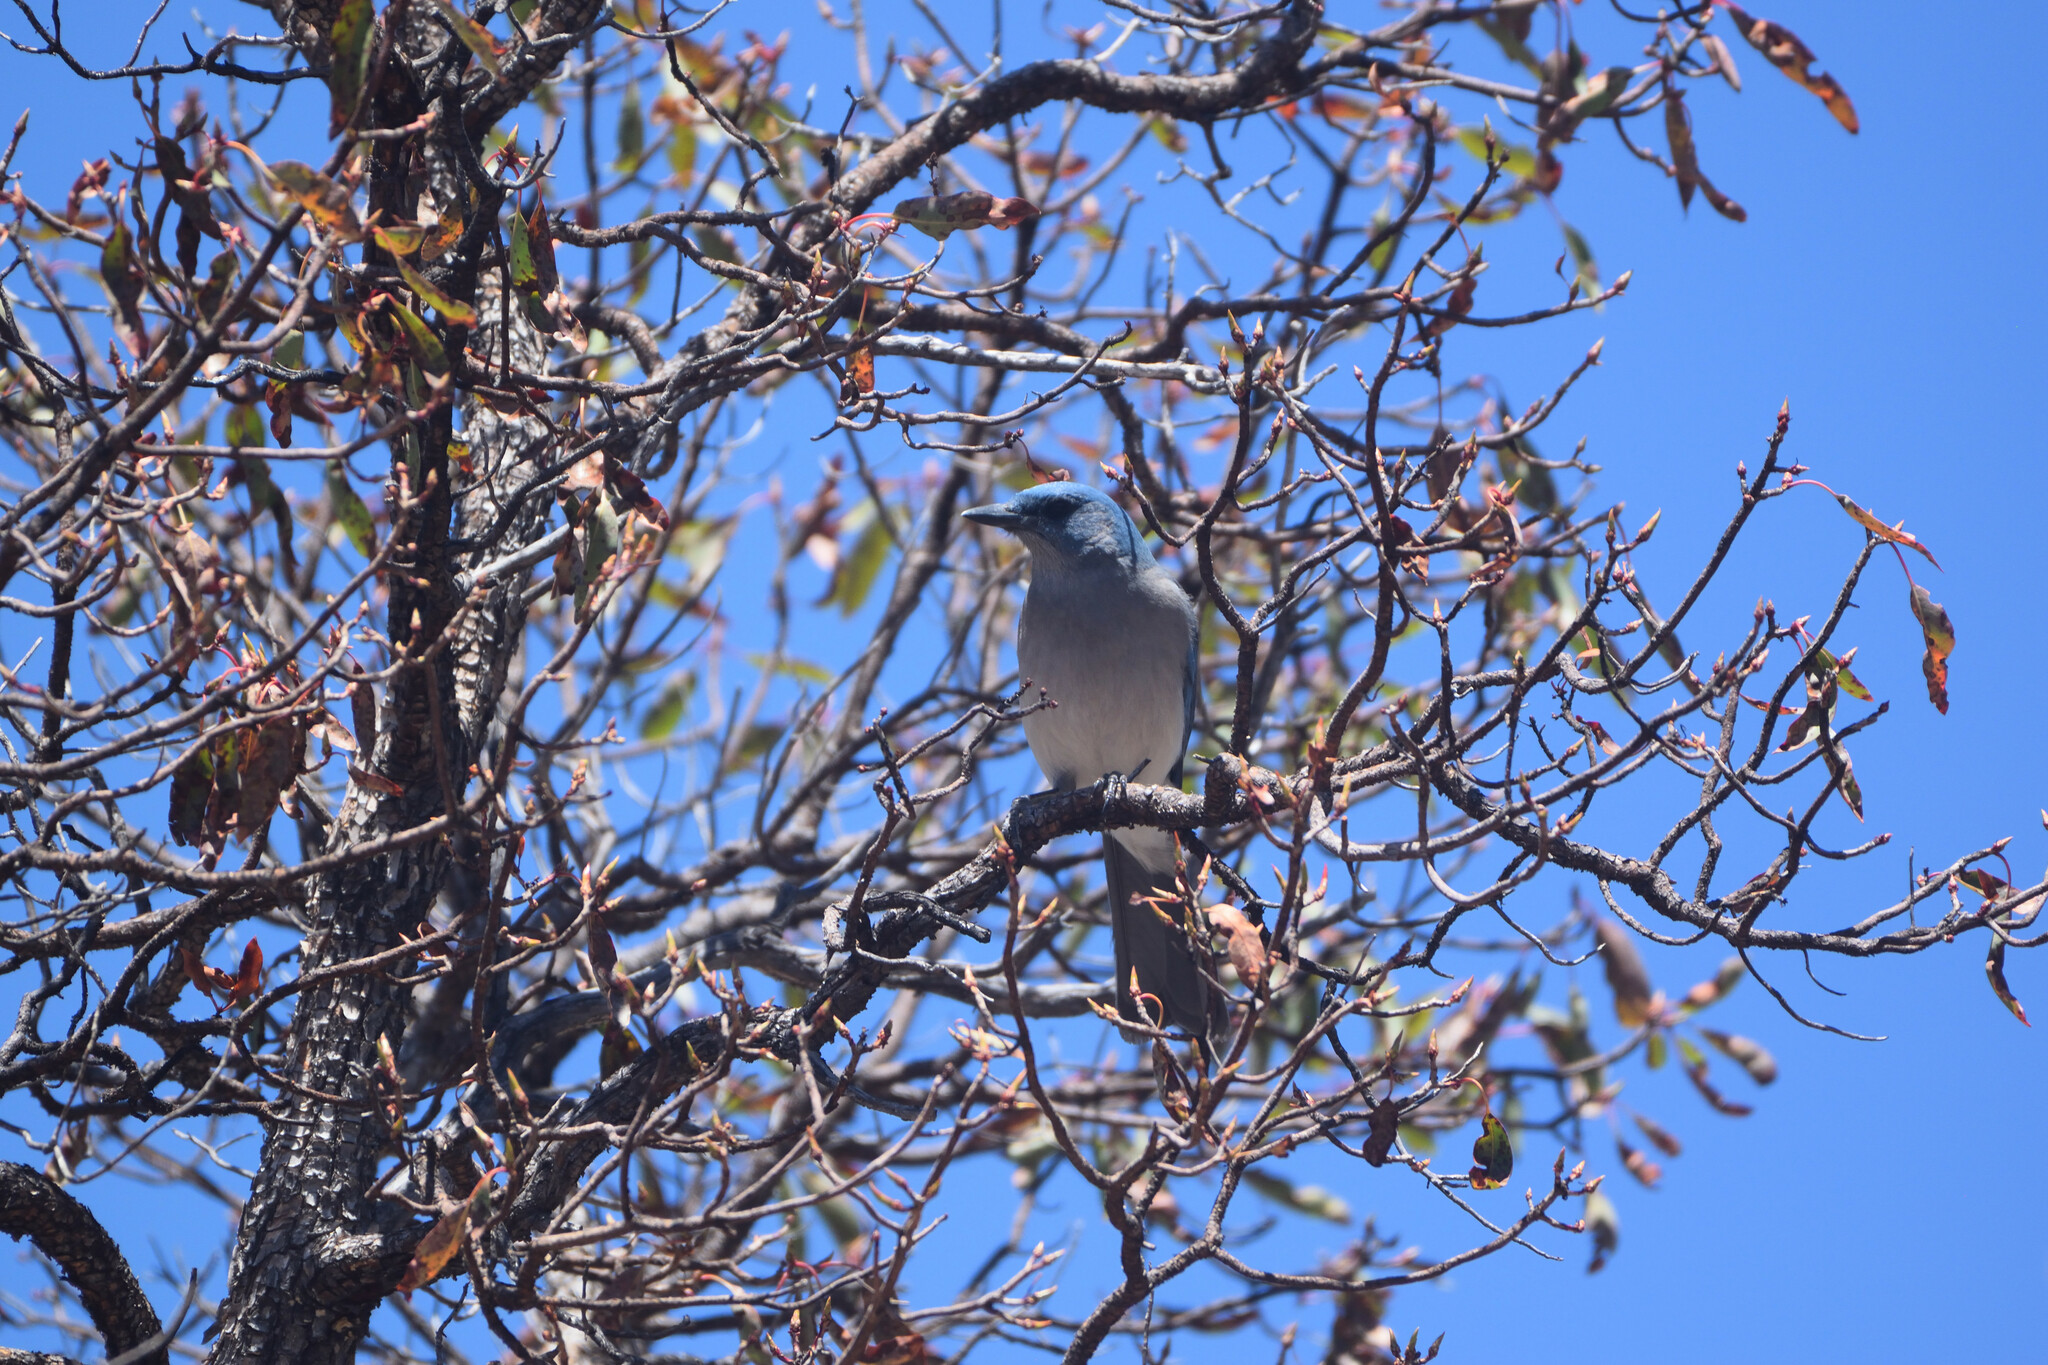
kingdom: Animalia
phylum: Chordata
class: Aves
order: Passeriformes
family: Corvidae
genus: Aphelocoma
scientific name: Aphelocoma wollweberi
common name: Mexican jay
